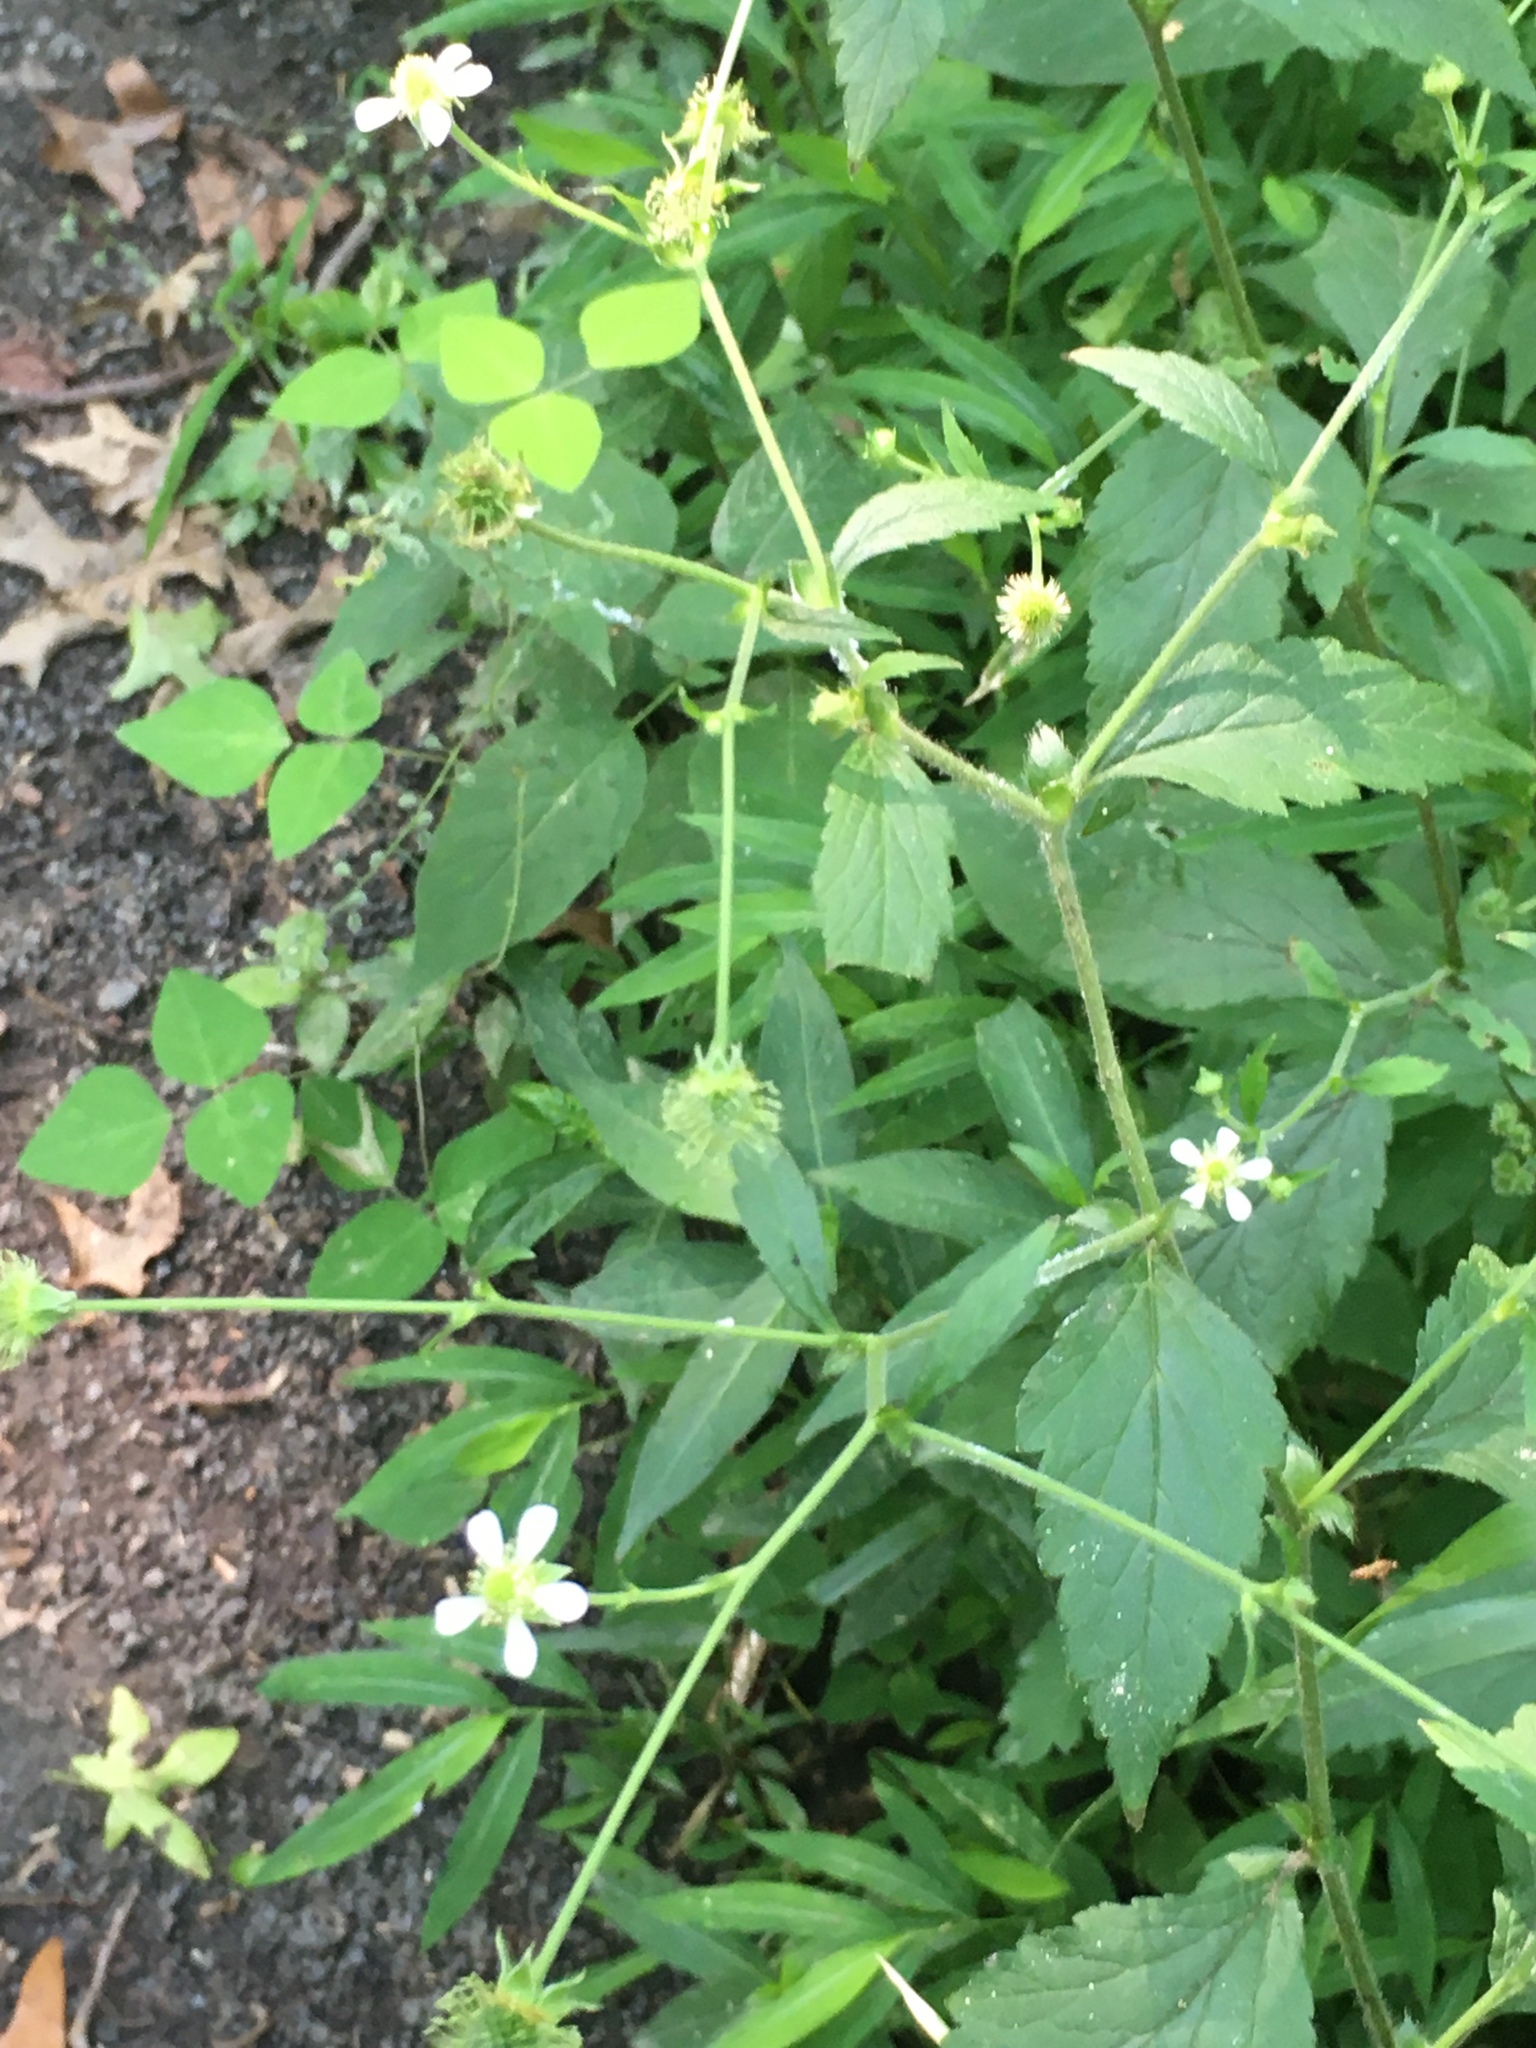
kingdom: Plantae
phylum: Tracheophyta
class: Magnoliopsida
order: Rosales
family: Rosaceae
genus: Geum
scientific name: Geum canadense
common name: White avens
